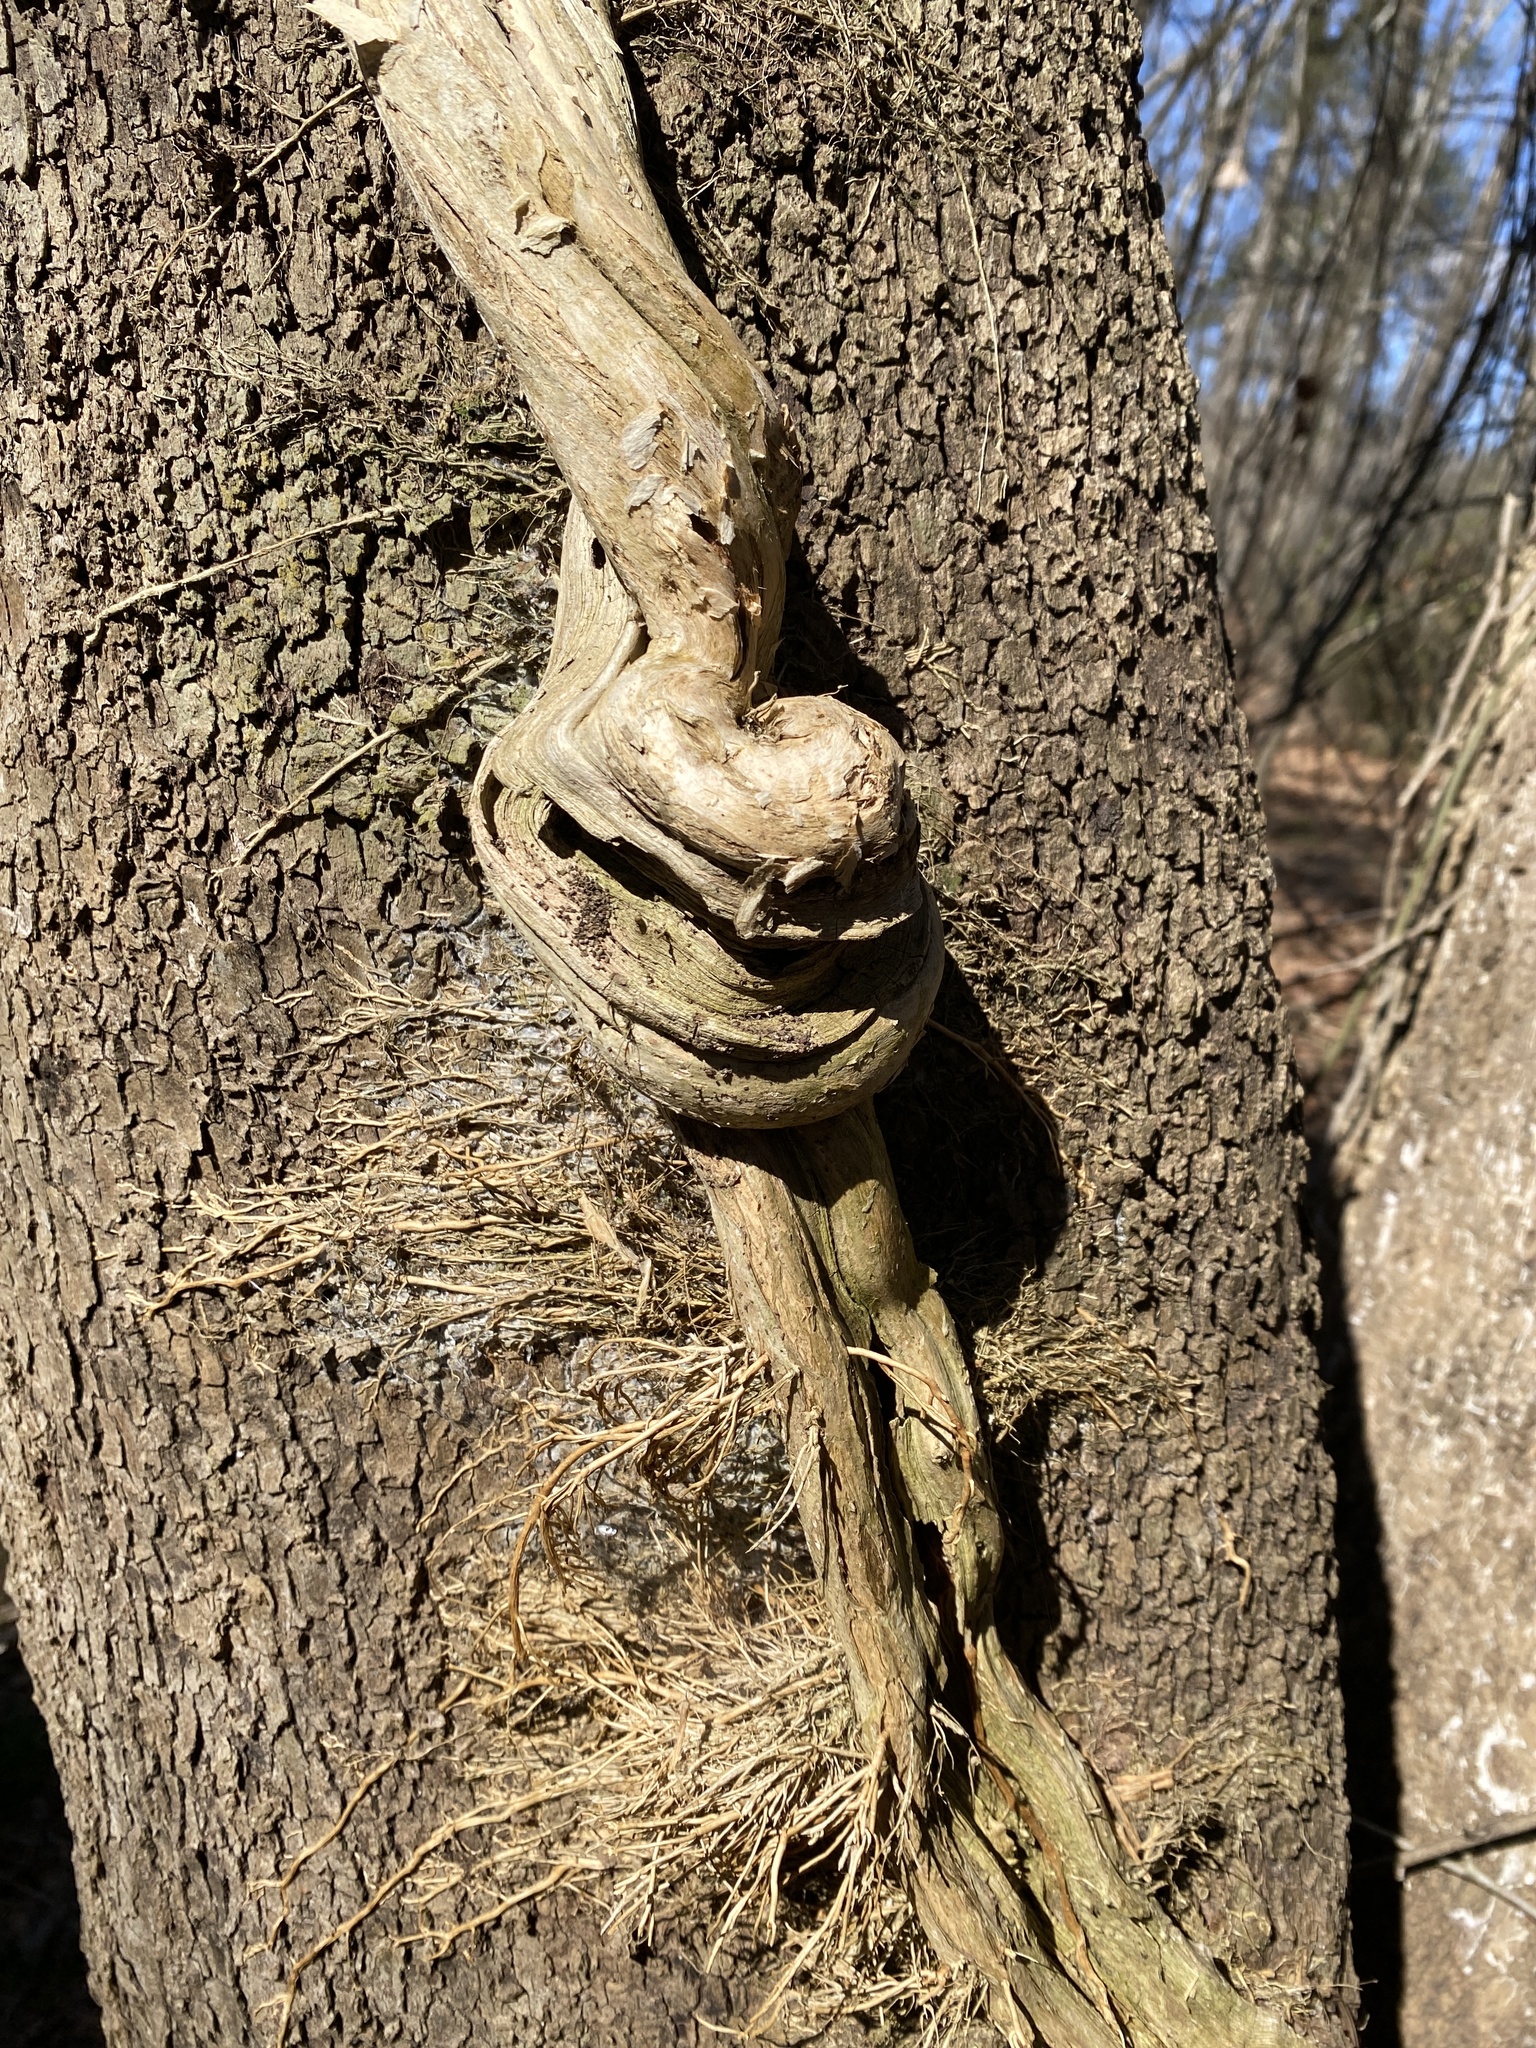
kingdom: Plantae
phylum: Tracheophyta
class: Magnoliopsida
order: Lamiales
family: Bignoniaceae
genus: Campsis
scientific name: Campsis radicans
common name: Trumpet-creeper
